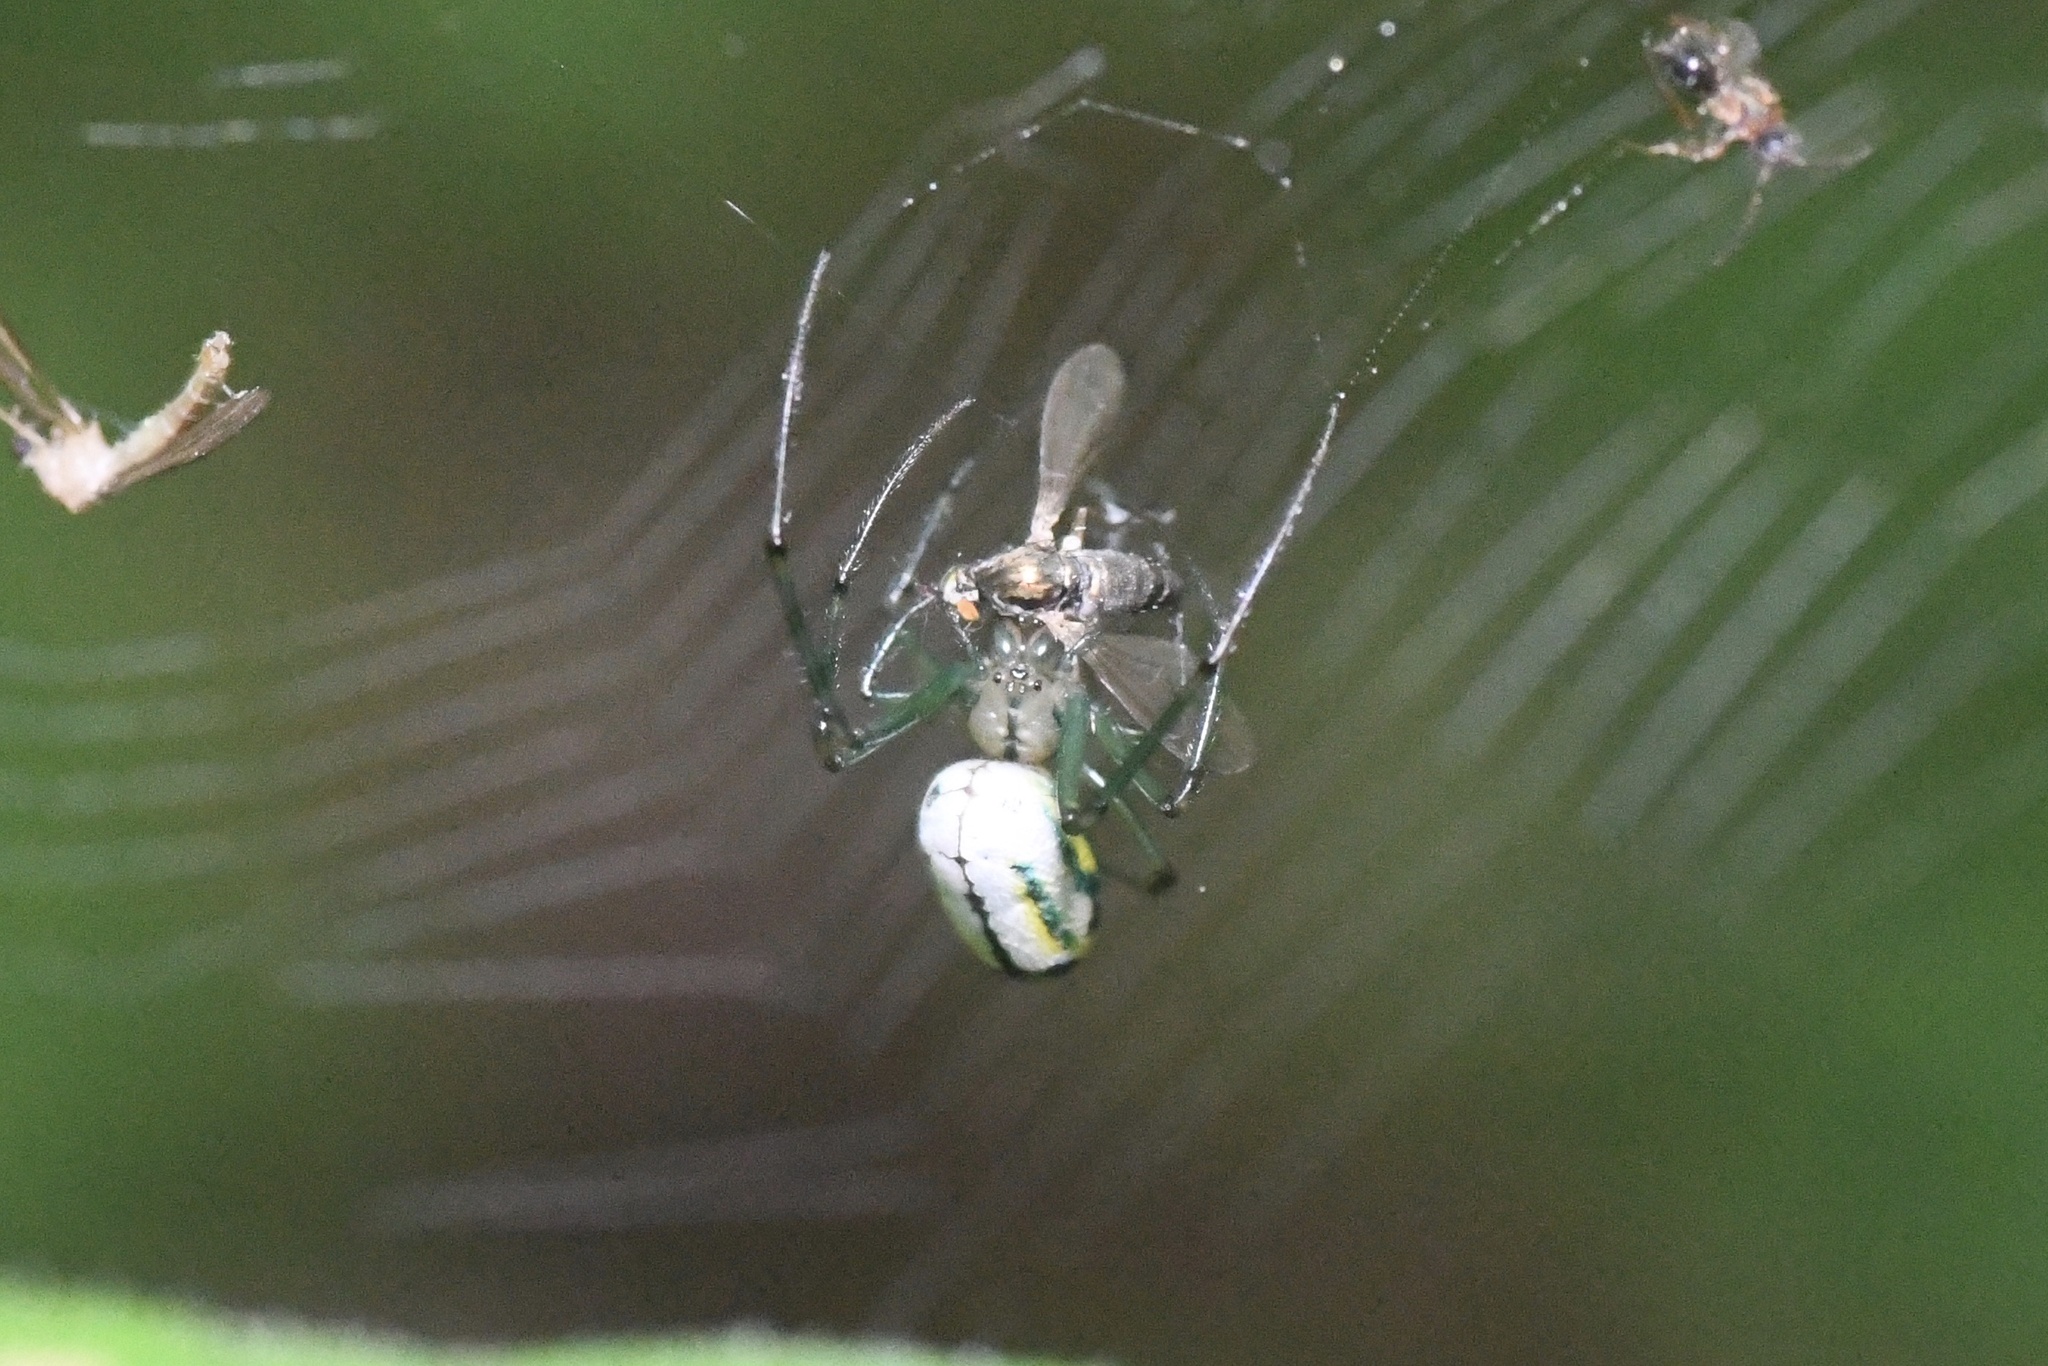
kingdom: Animalia
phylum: Arthropoda
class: Arachnida
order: Araneae
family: Tetragnathidae
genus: Leucauge
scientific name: Leucauge venusta
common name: Longjawed orb weavers
